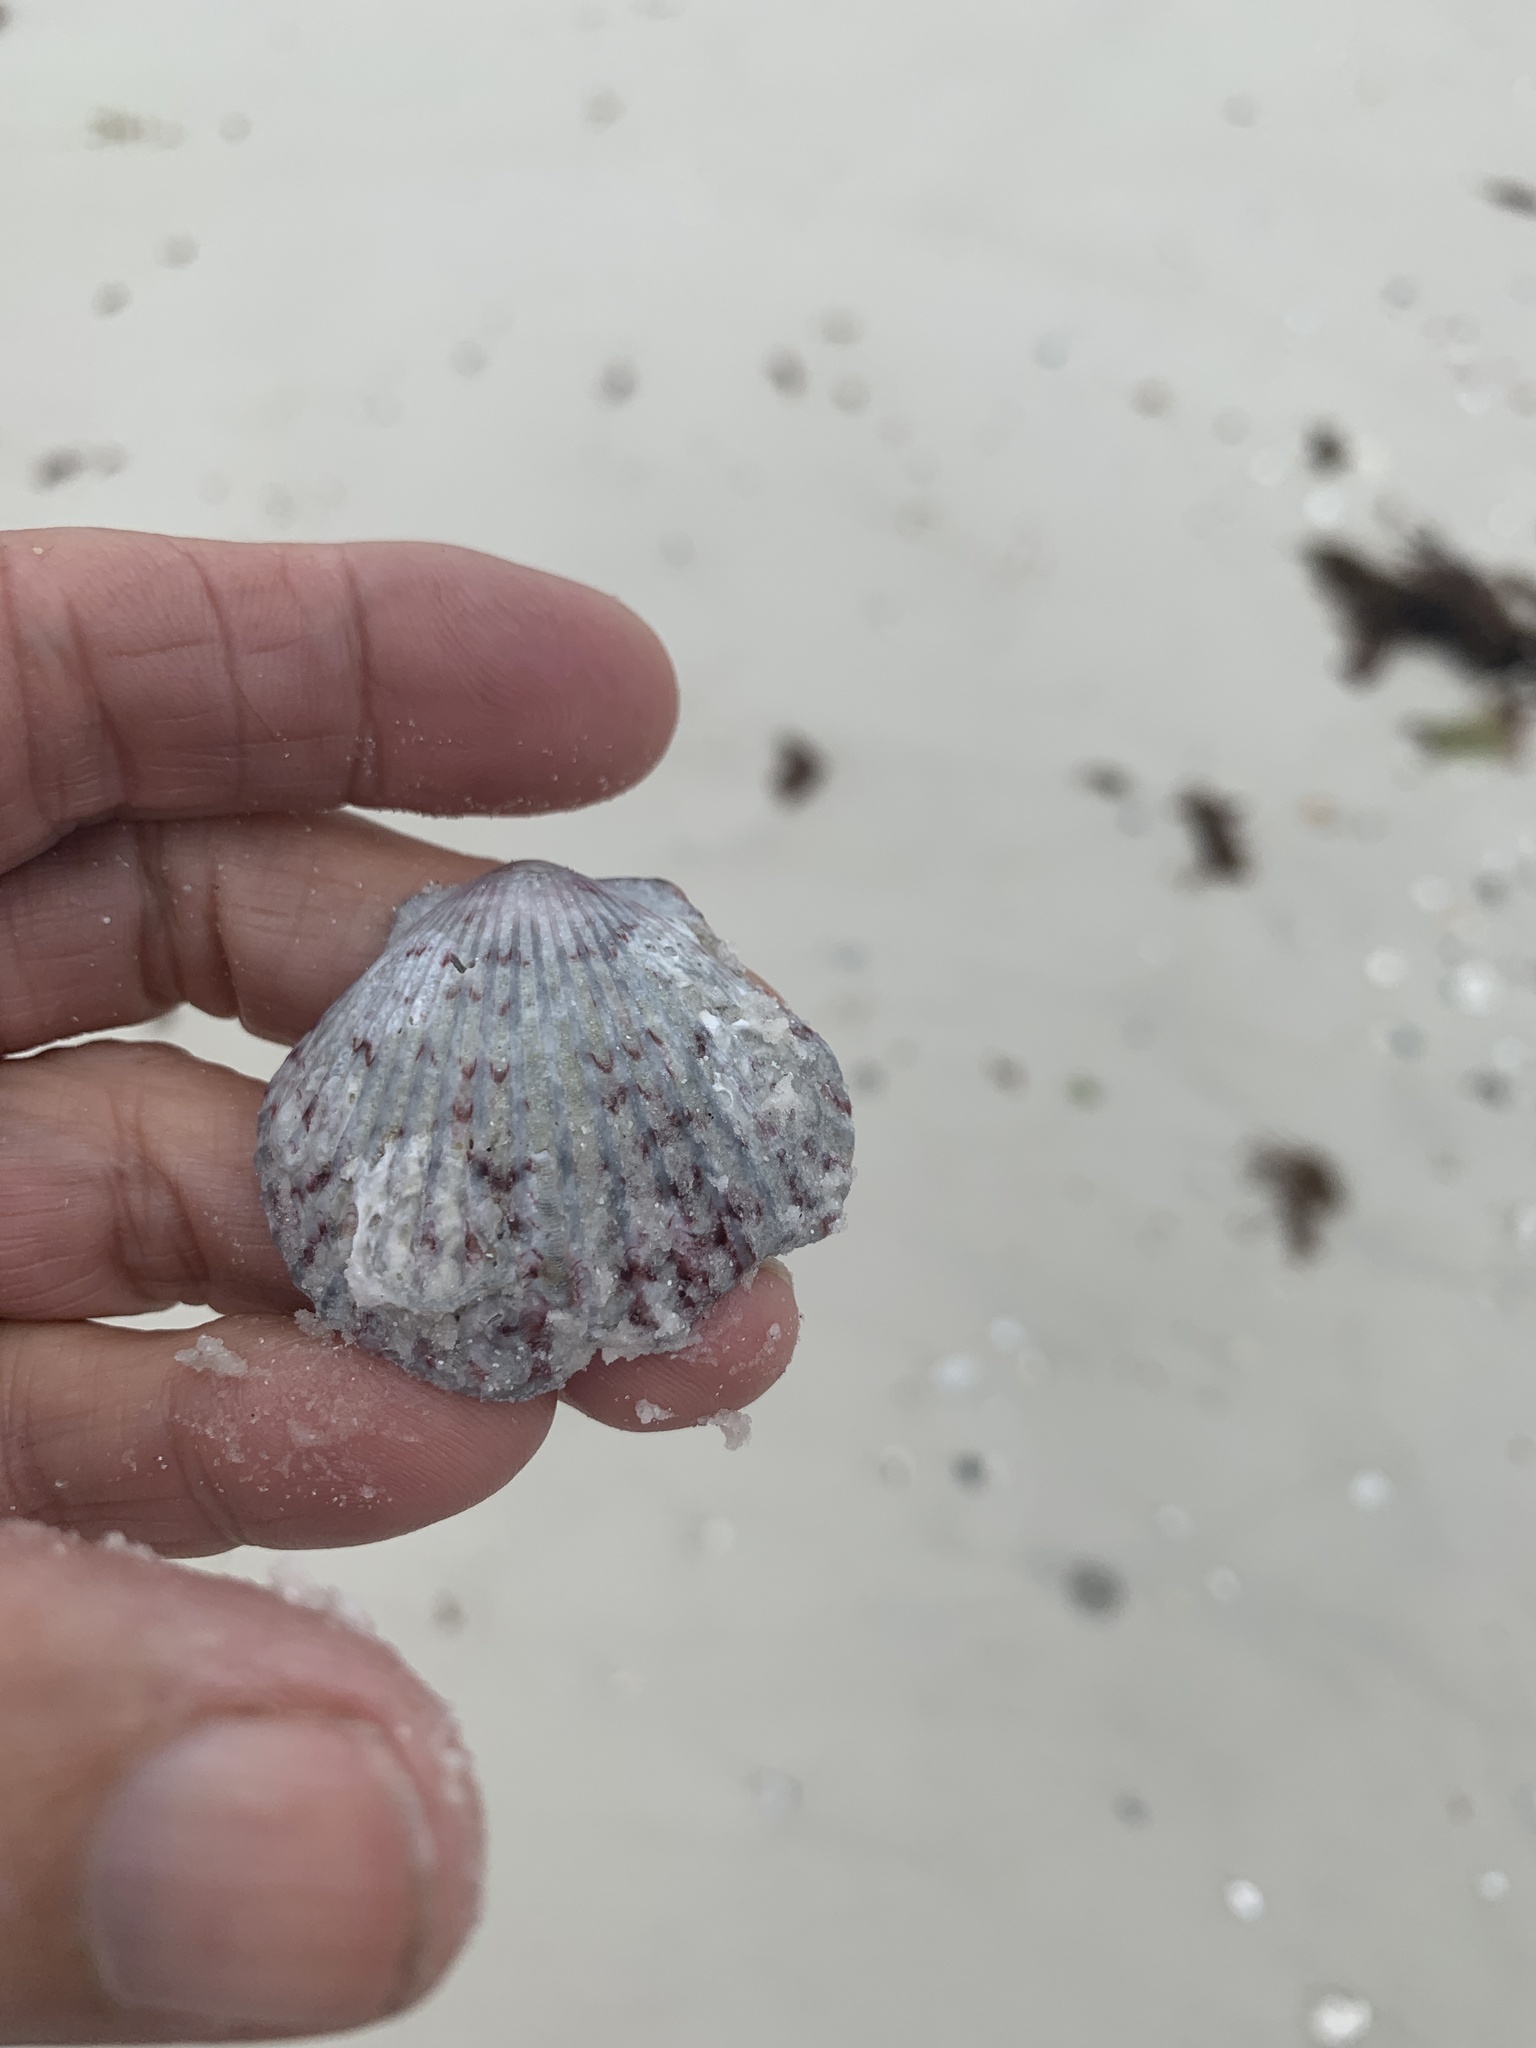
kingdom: Animalia
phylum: Mollusca
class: Bivalvia
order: Pectinida
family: Pectinidae
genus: Argopecten
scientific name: Argopecten gibbus
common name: Atlantic calico scallop
